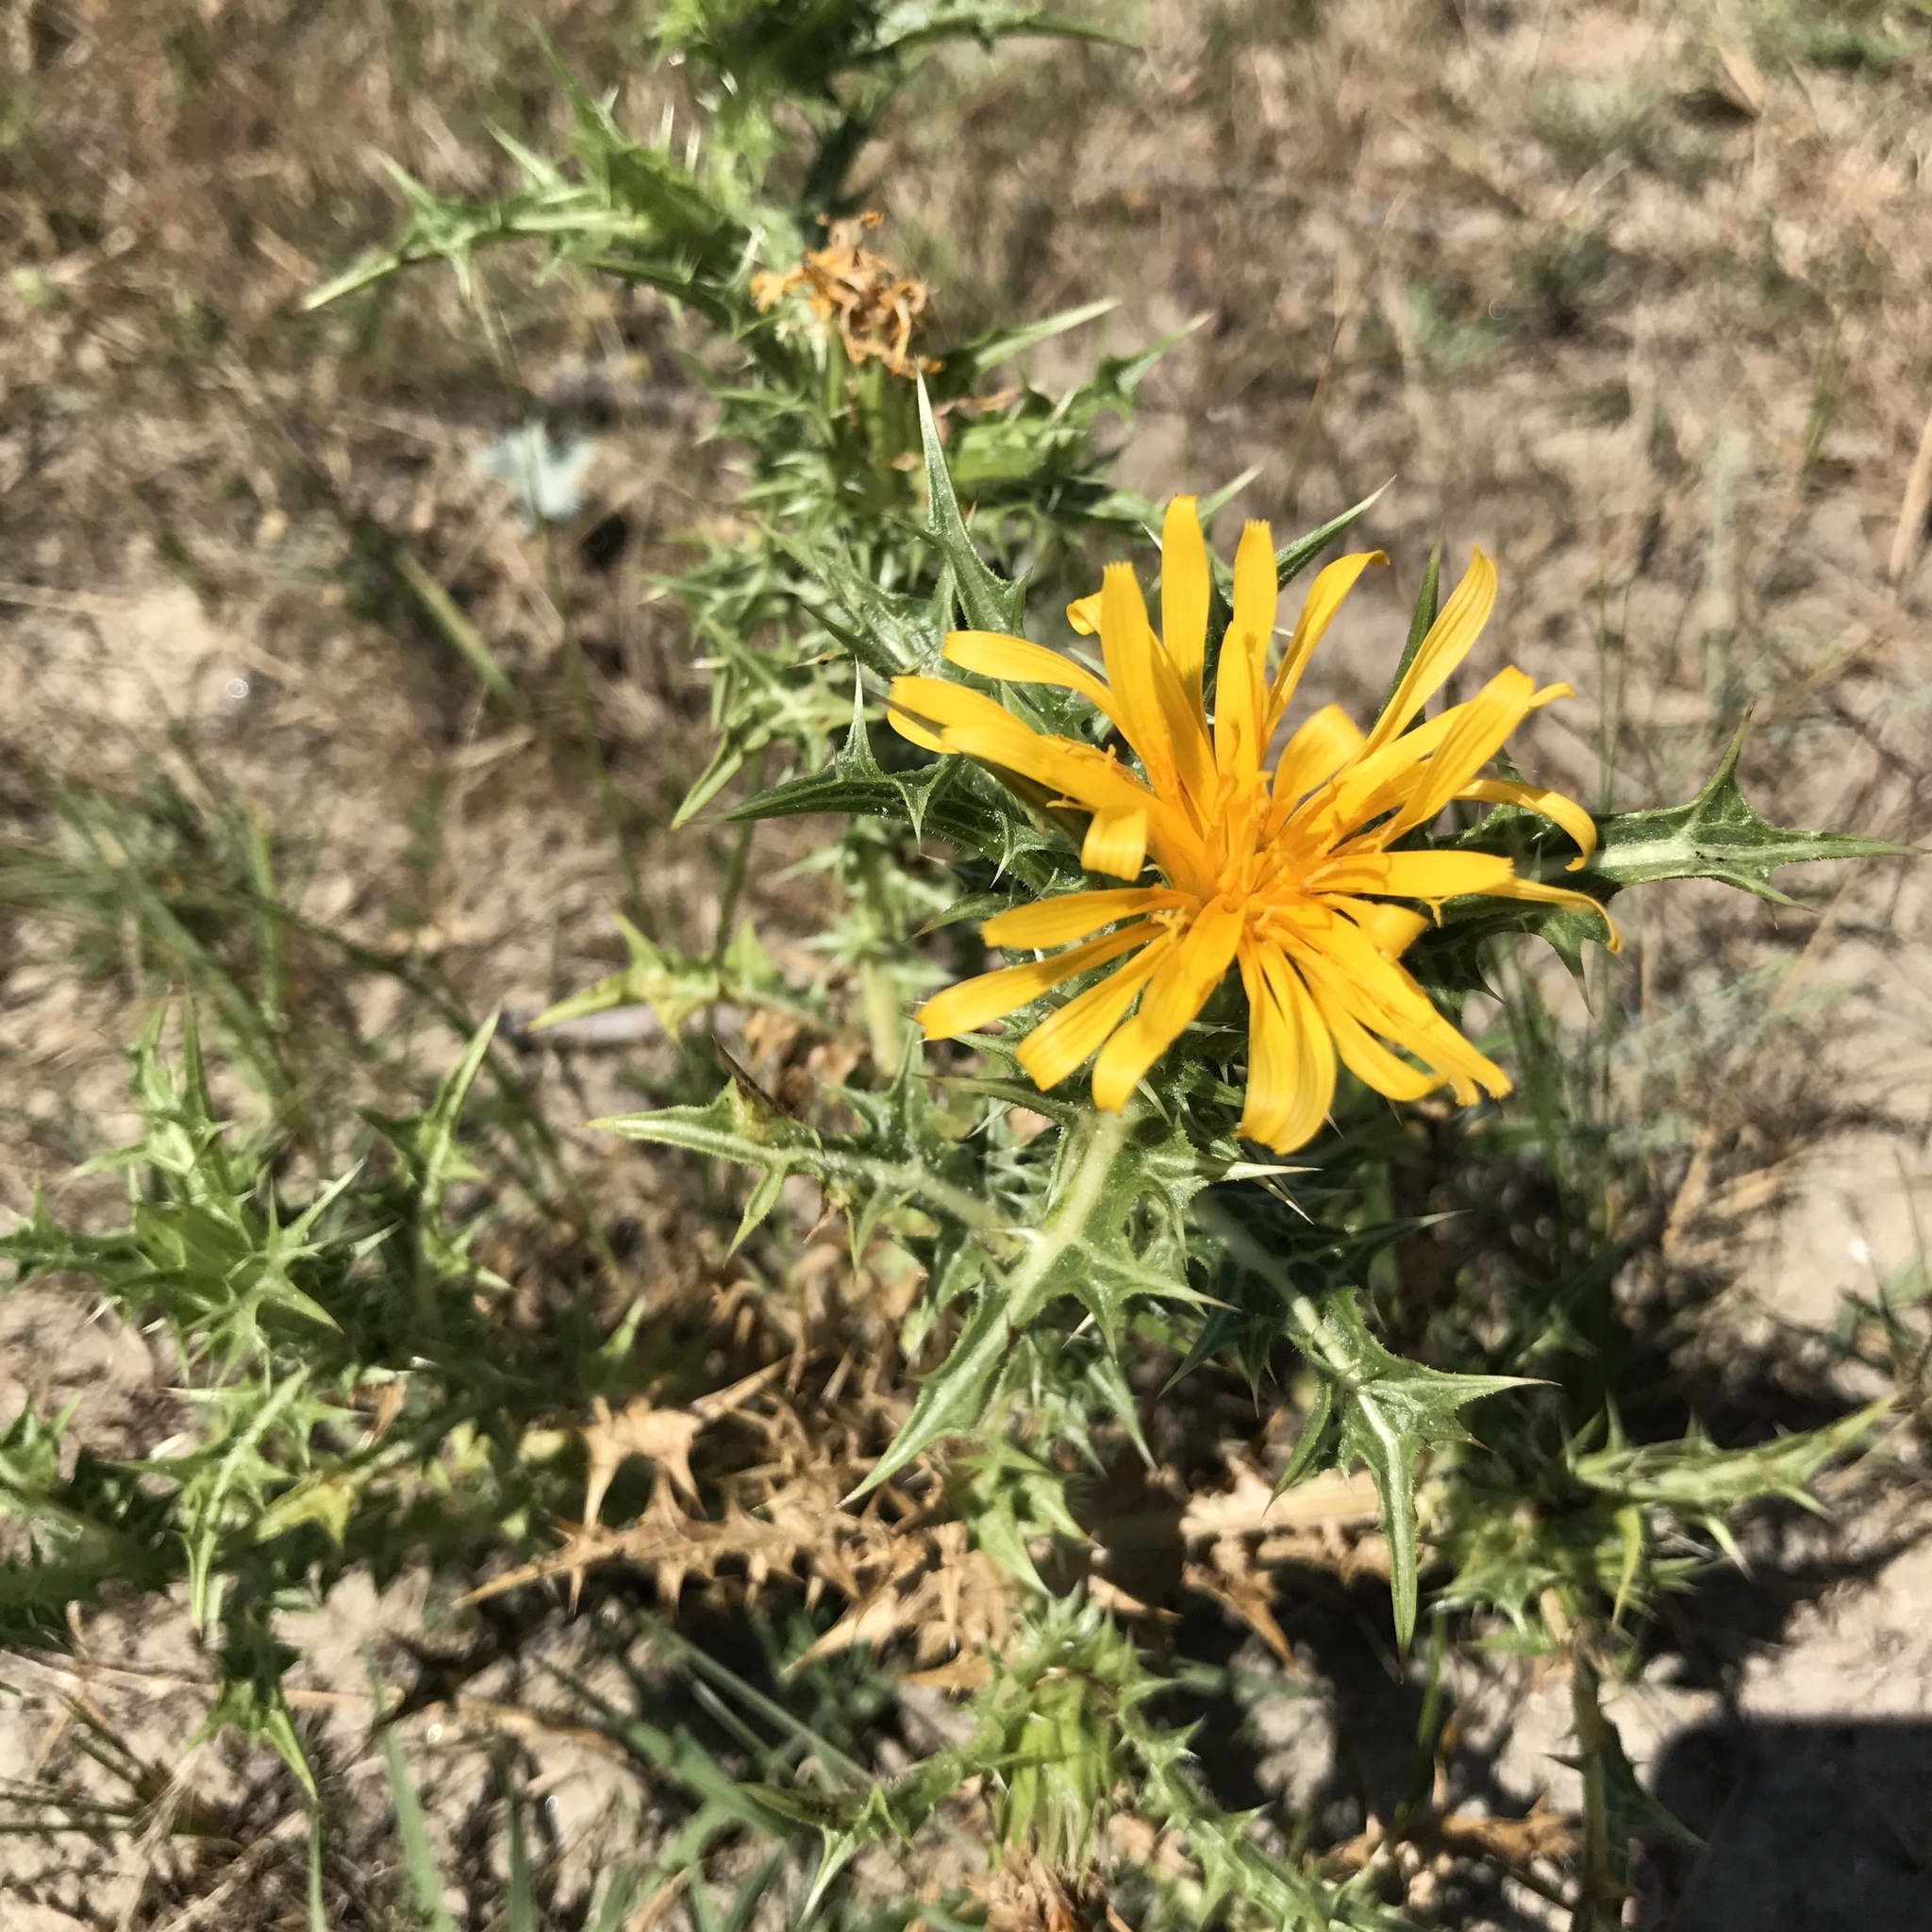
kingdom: Plantae
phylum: Tracheophyta
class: Magnoliopsida
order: Asterales
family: Asteraceae
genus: Scolymus
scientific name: Scolymus hispanicus
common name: Golden thistle
